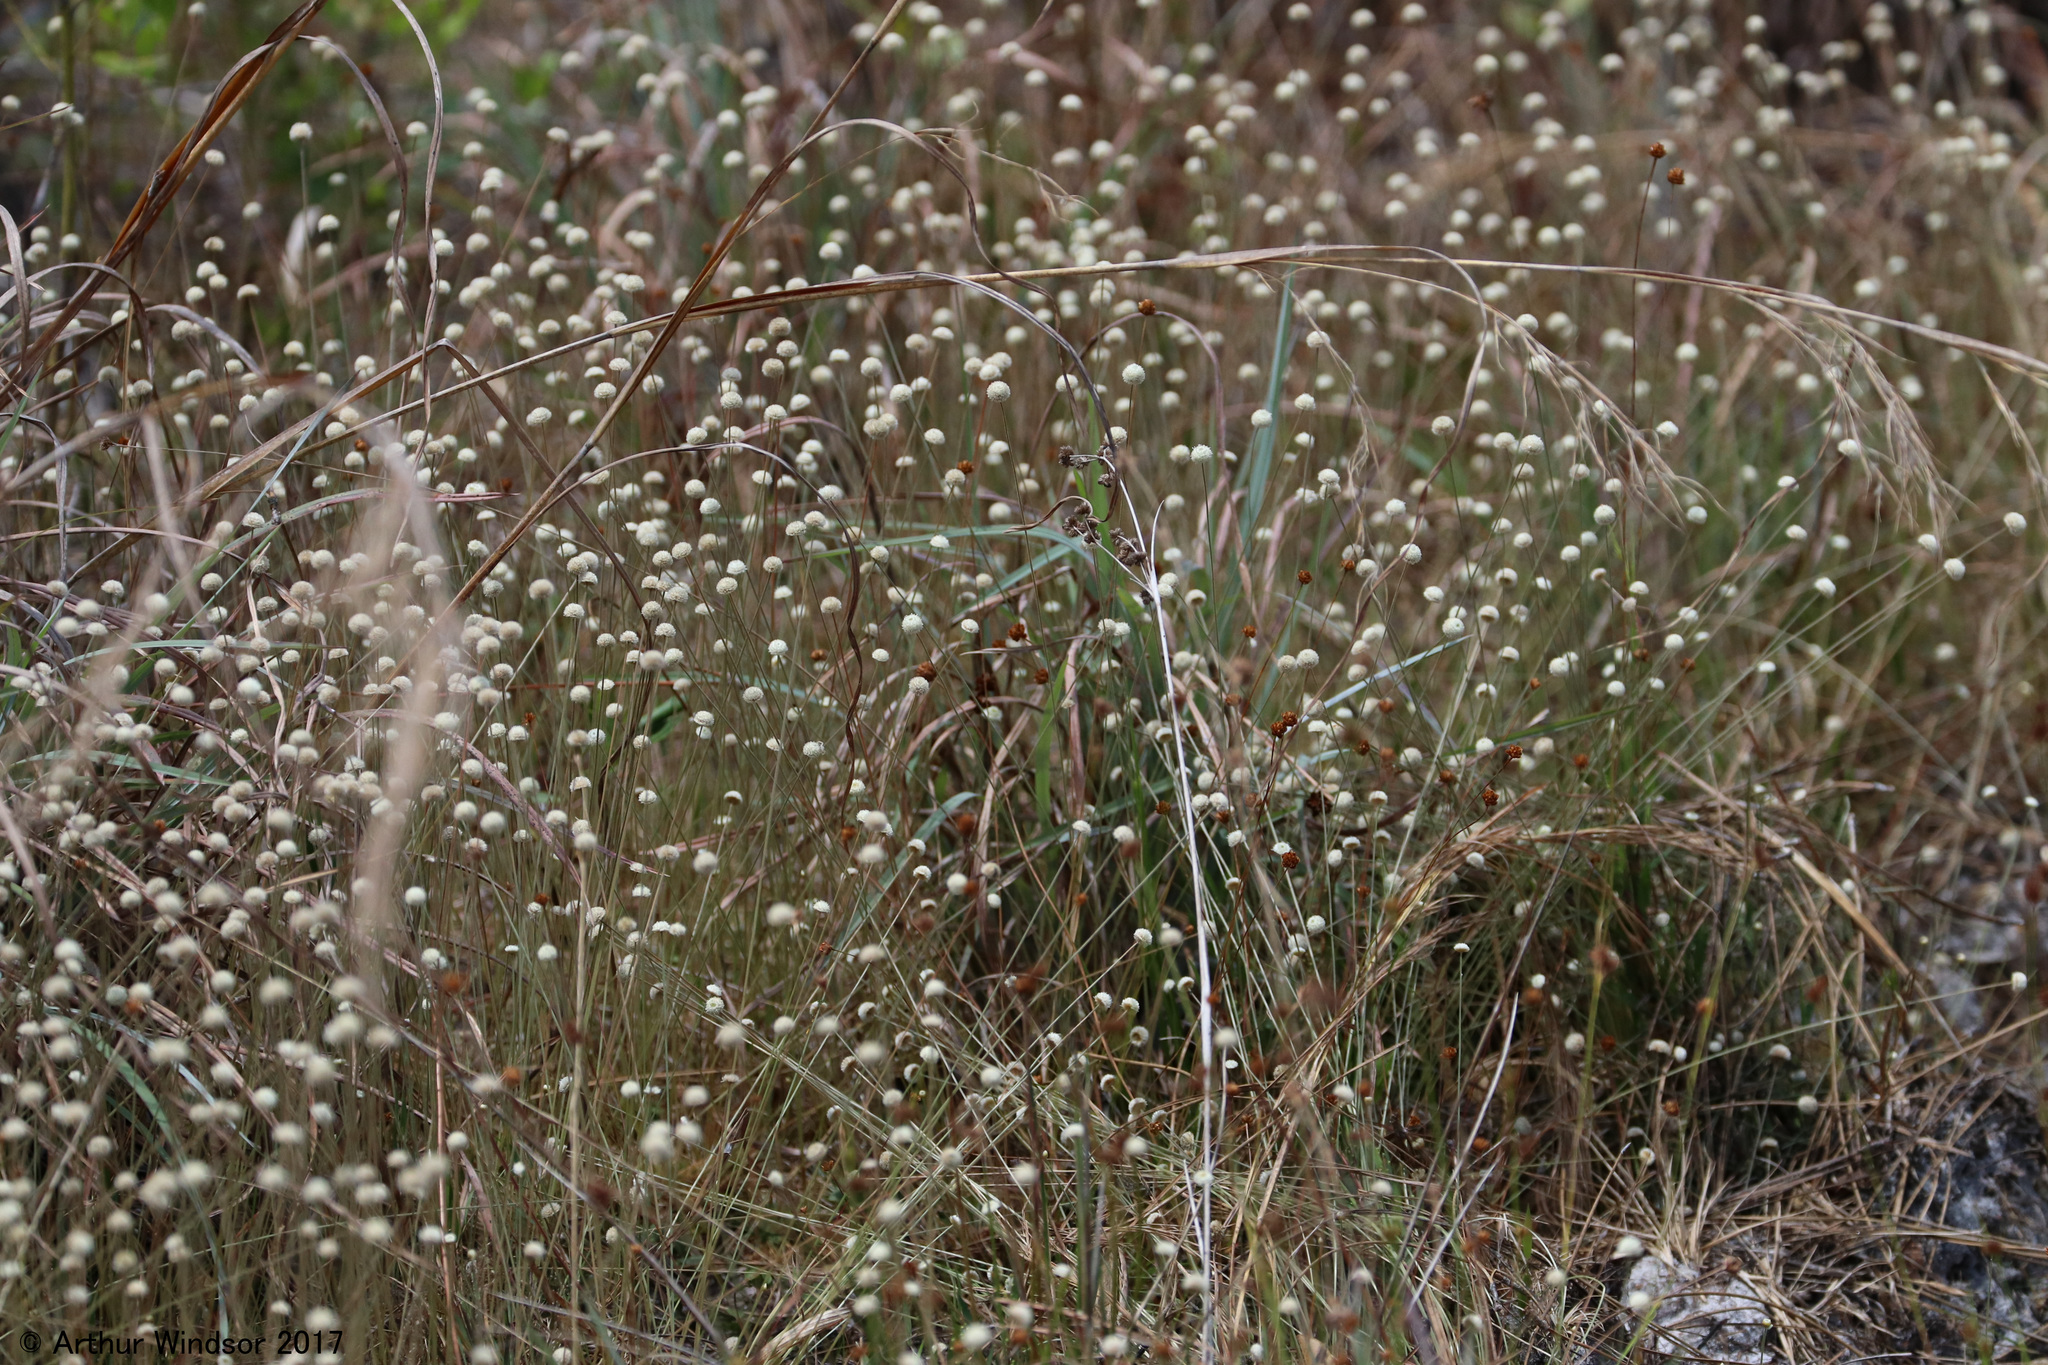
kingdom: Plantae
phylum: Tracheophyta
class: Liliopsida
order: Poales
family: Eriocaulaceae
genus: Syngonanthus
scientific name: Syngonanthus flavidulus
